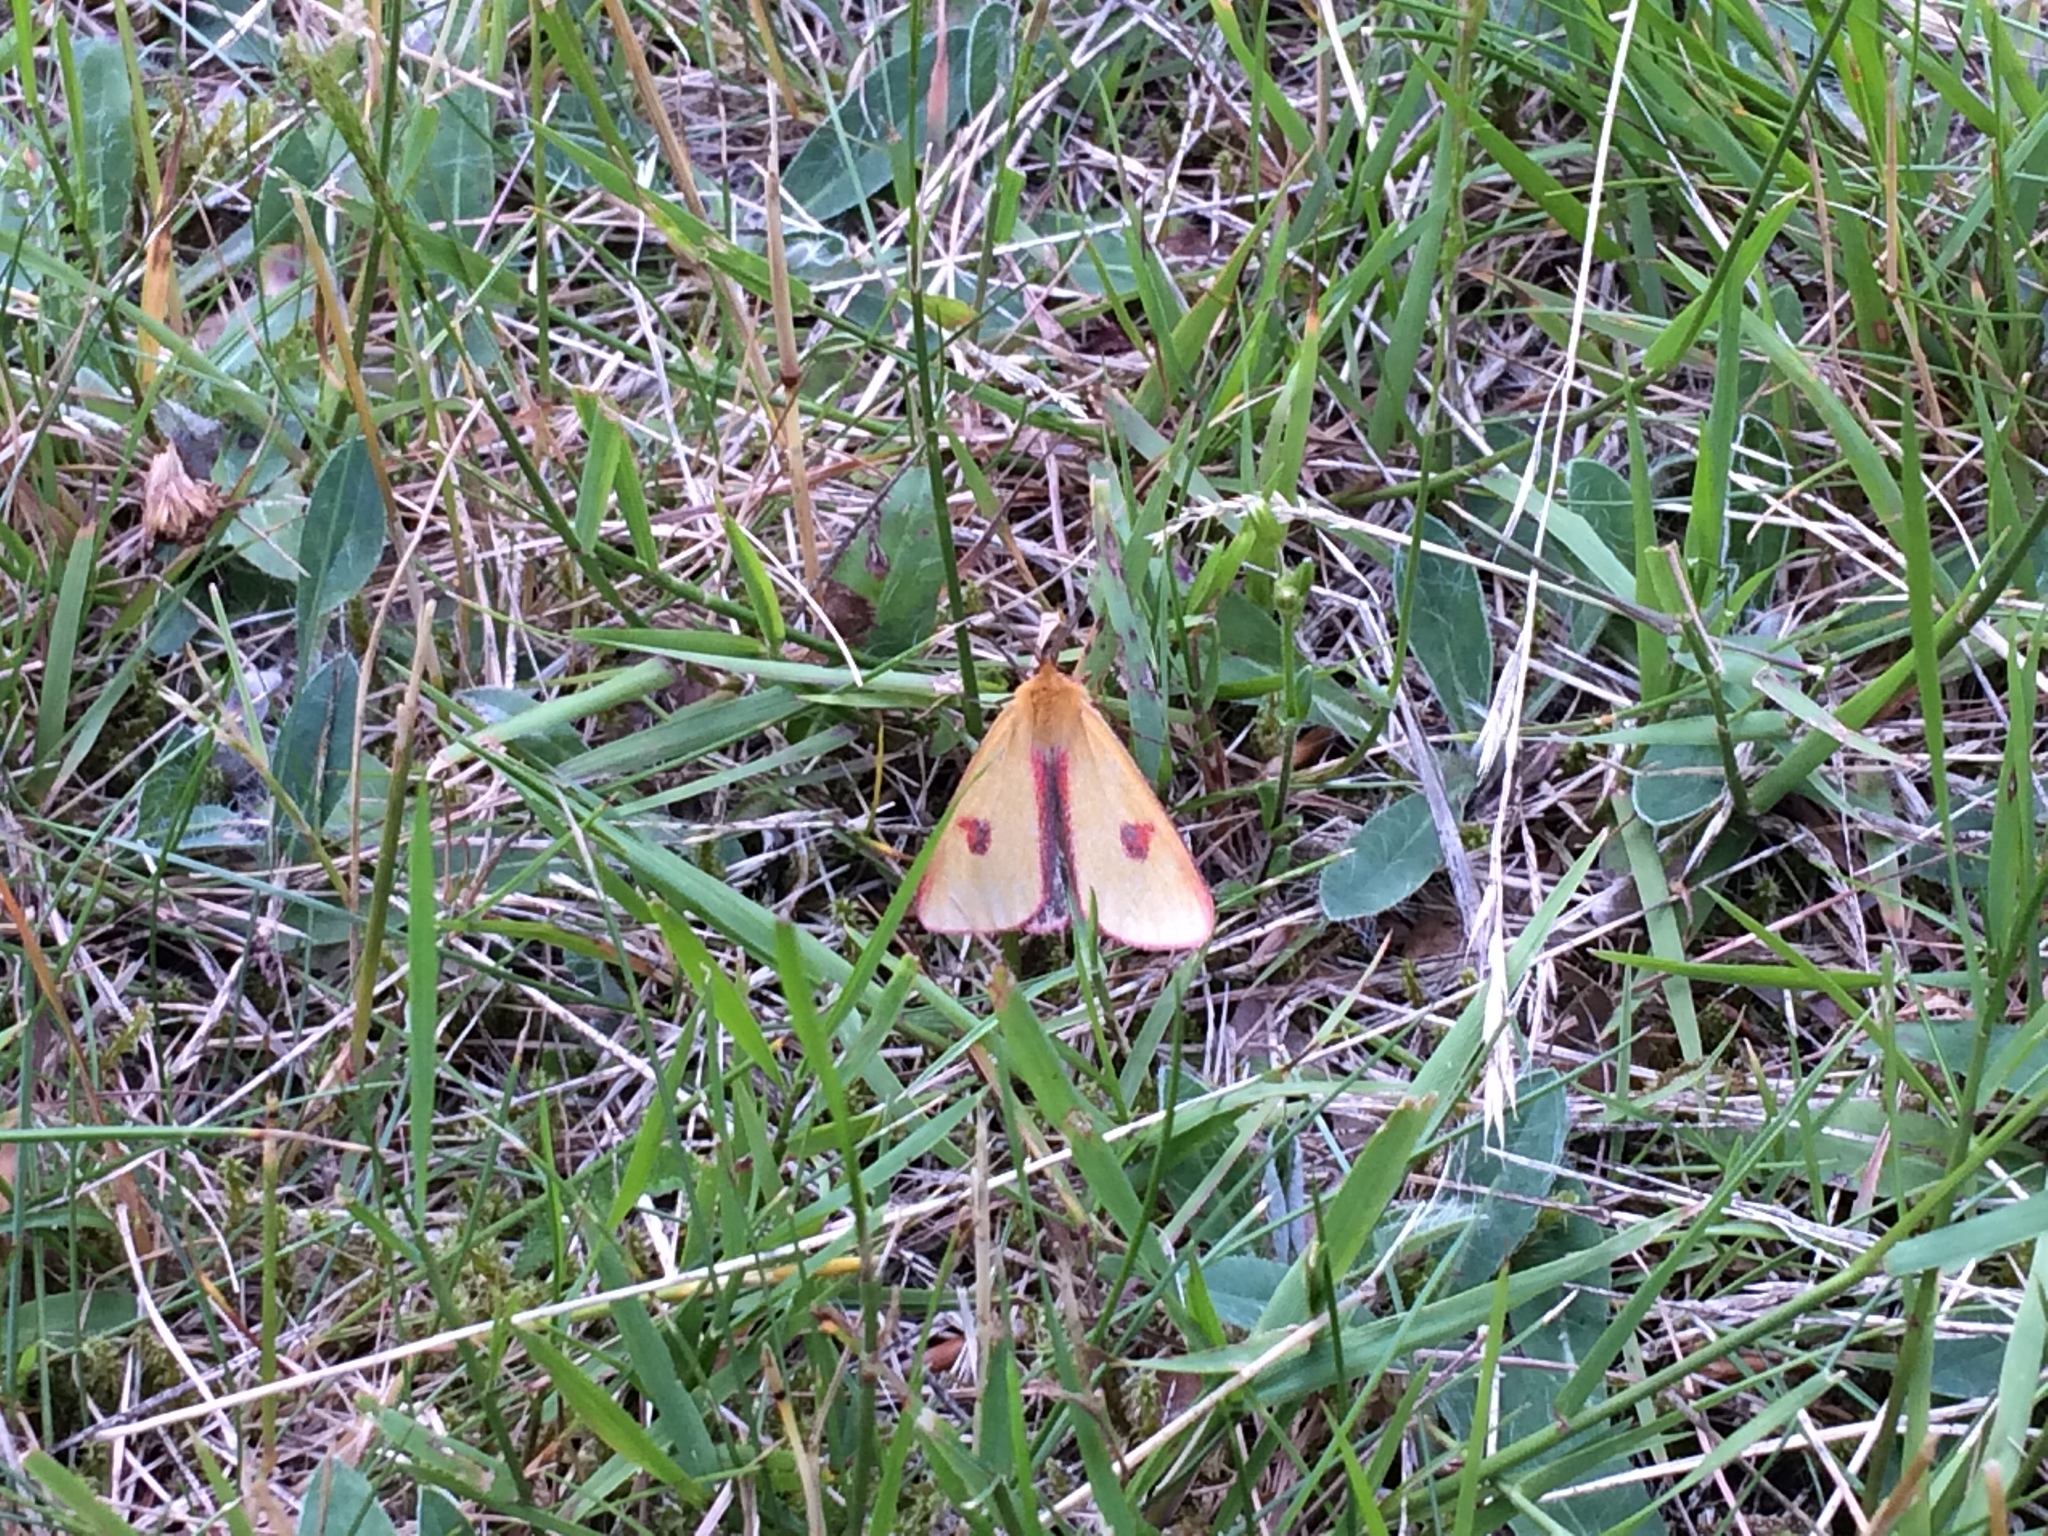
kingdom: Animalia
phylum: Arthropoda
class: Insecta
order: Lepidoptera
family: Erebidae
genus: Diacrisia
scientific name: Diacrisia sannio
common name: Clouded buff
